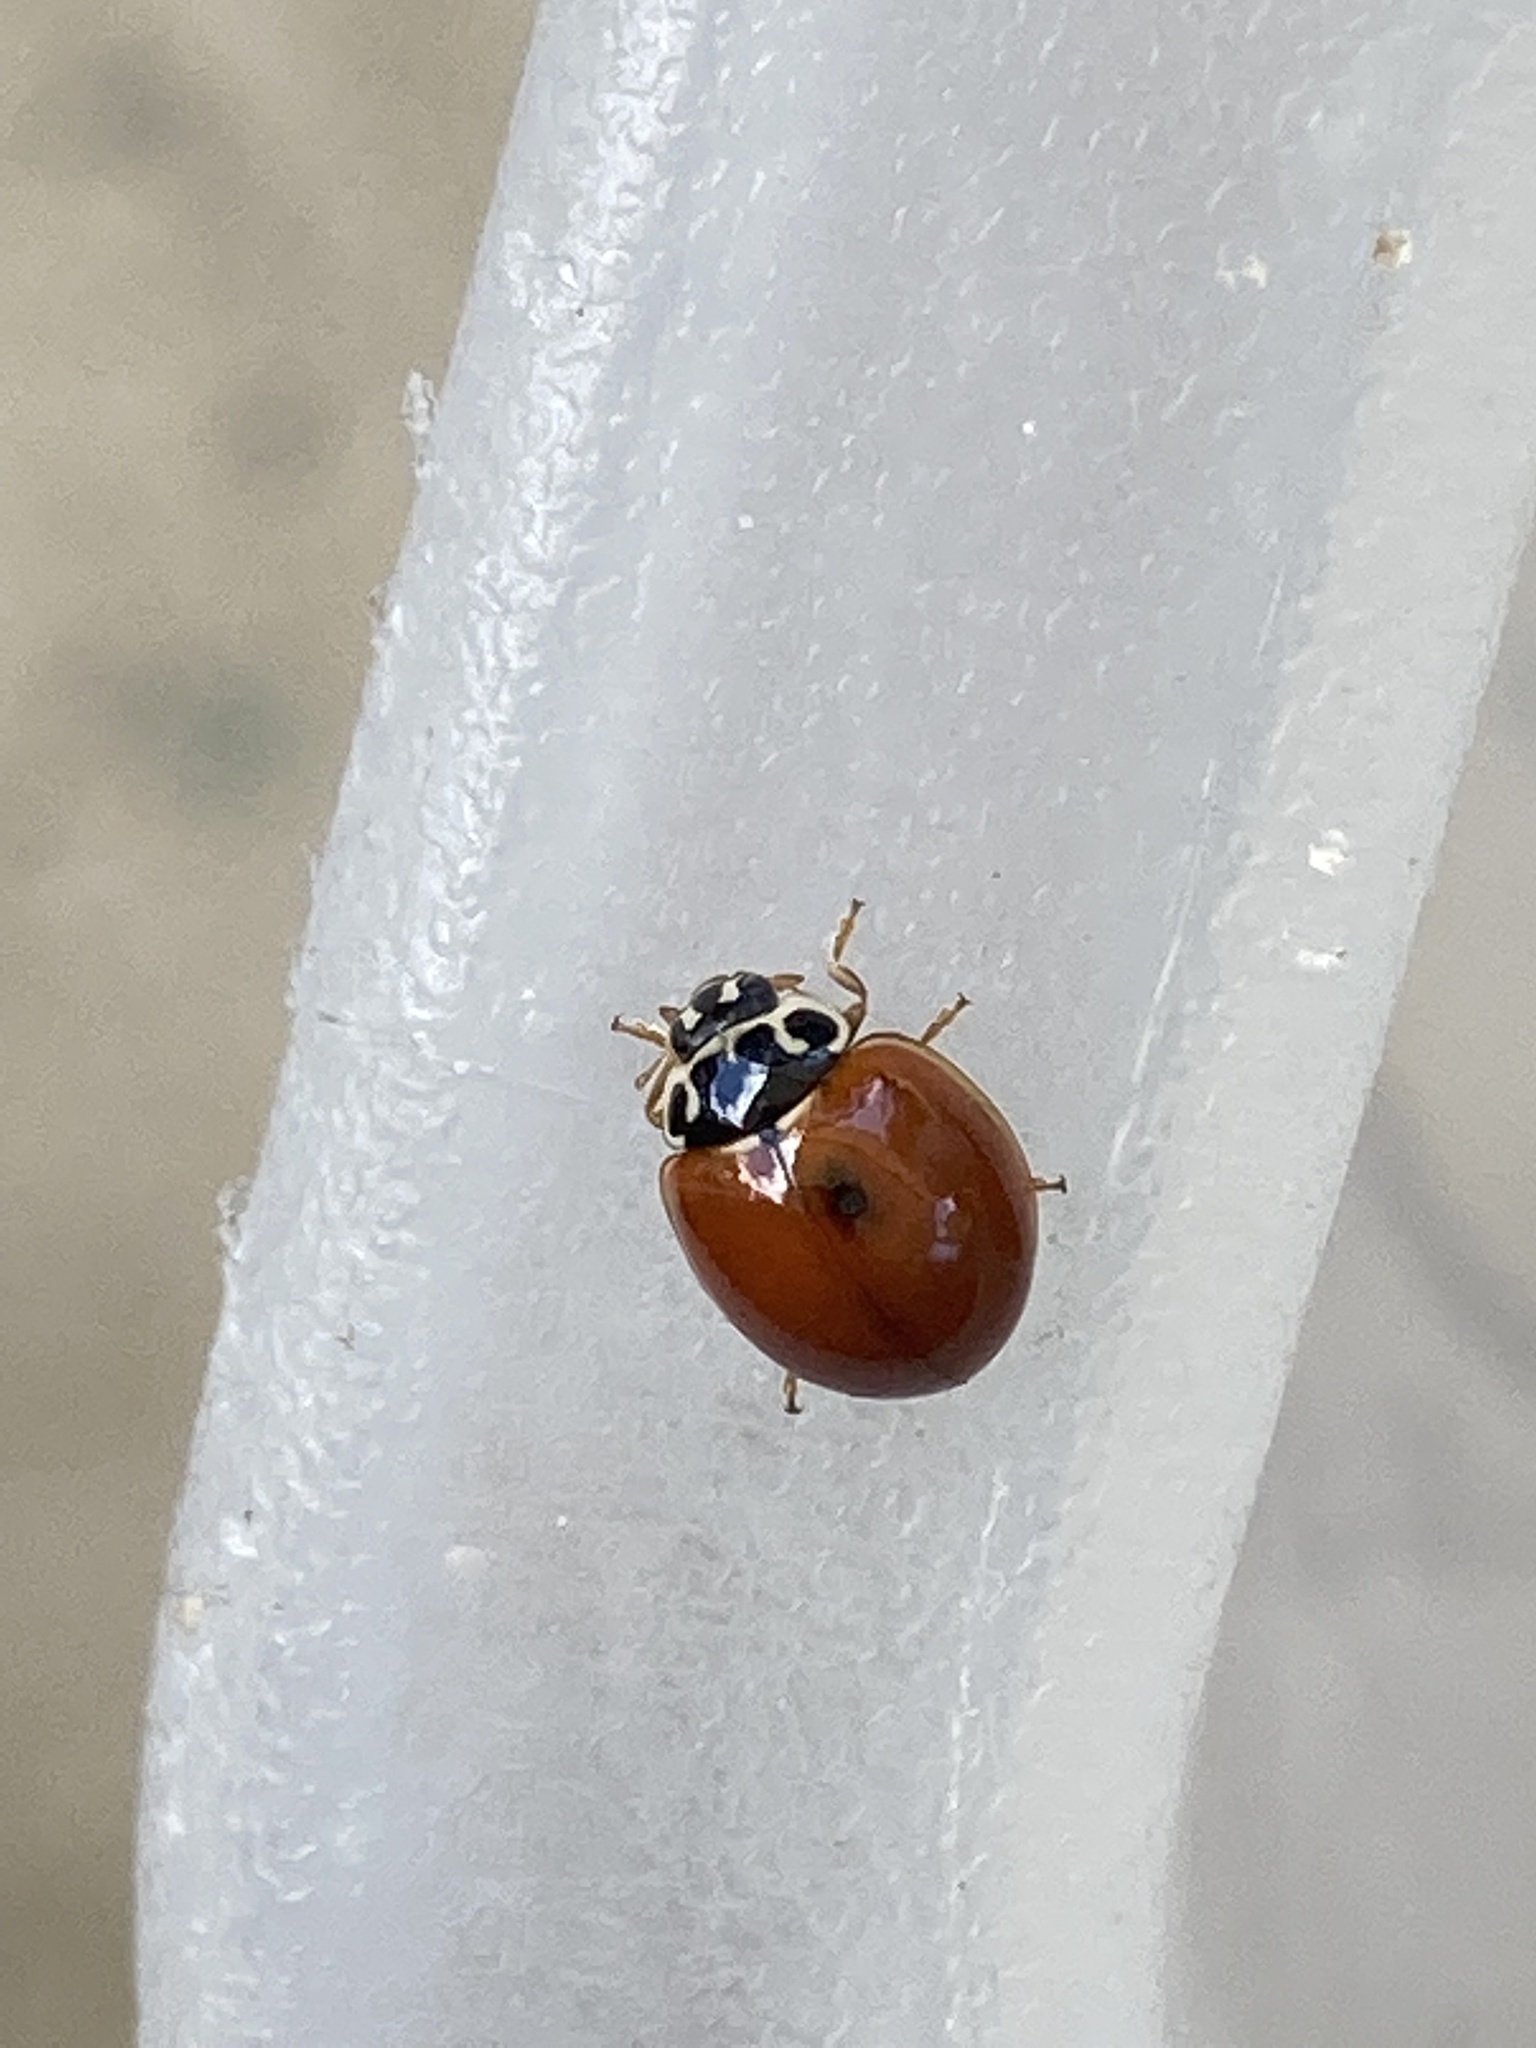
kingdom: Animalia
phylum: Arthropoda
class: Insecta
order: Coleoptera
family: Coccinellidae
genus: Cycloneda
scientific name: Cycloneda munda
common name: Polished lady beetle
